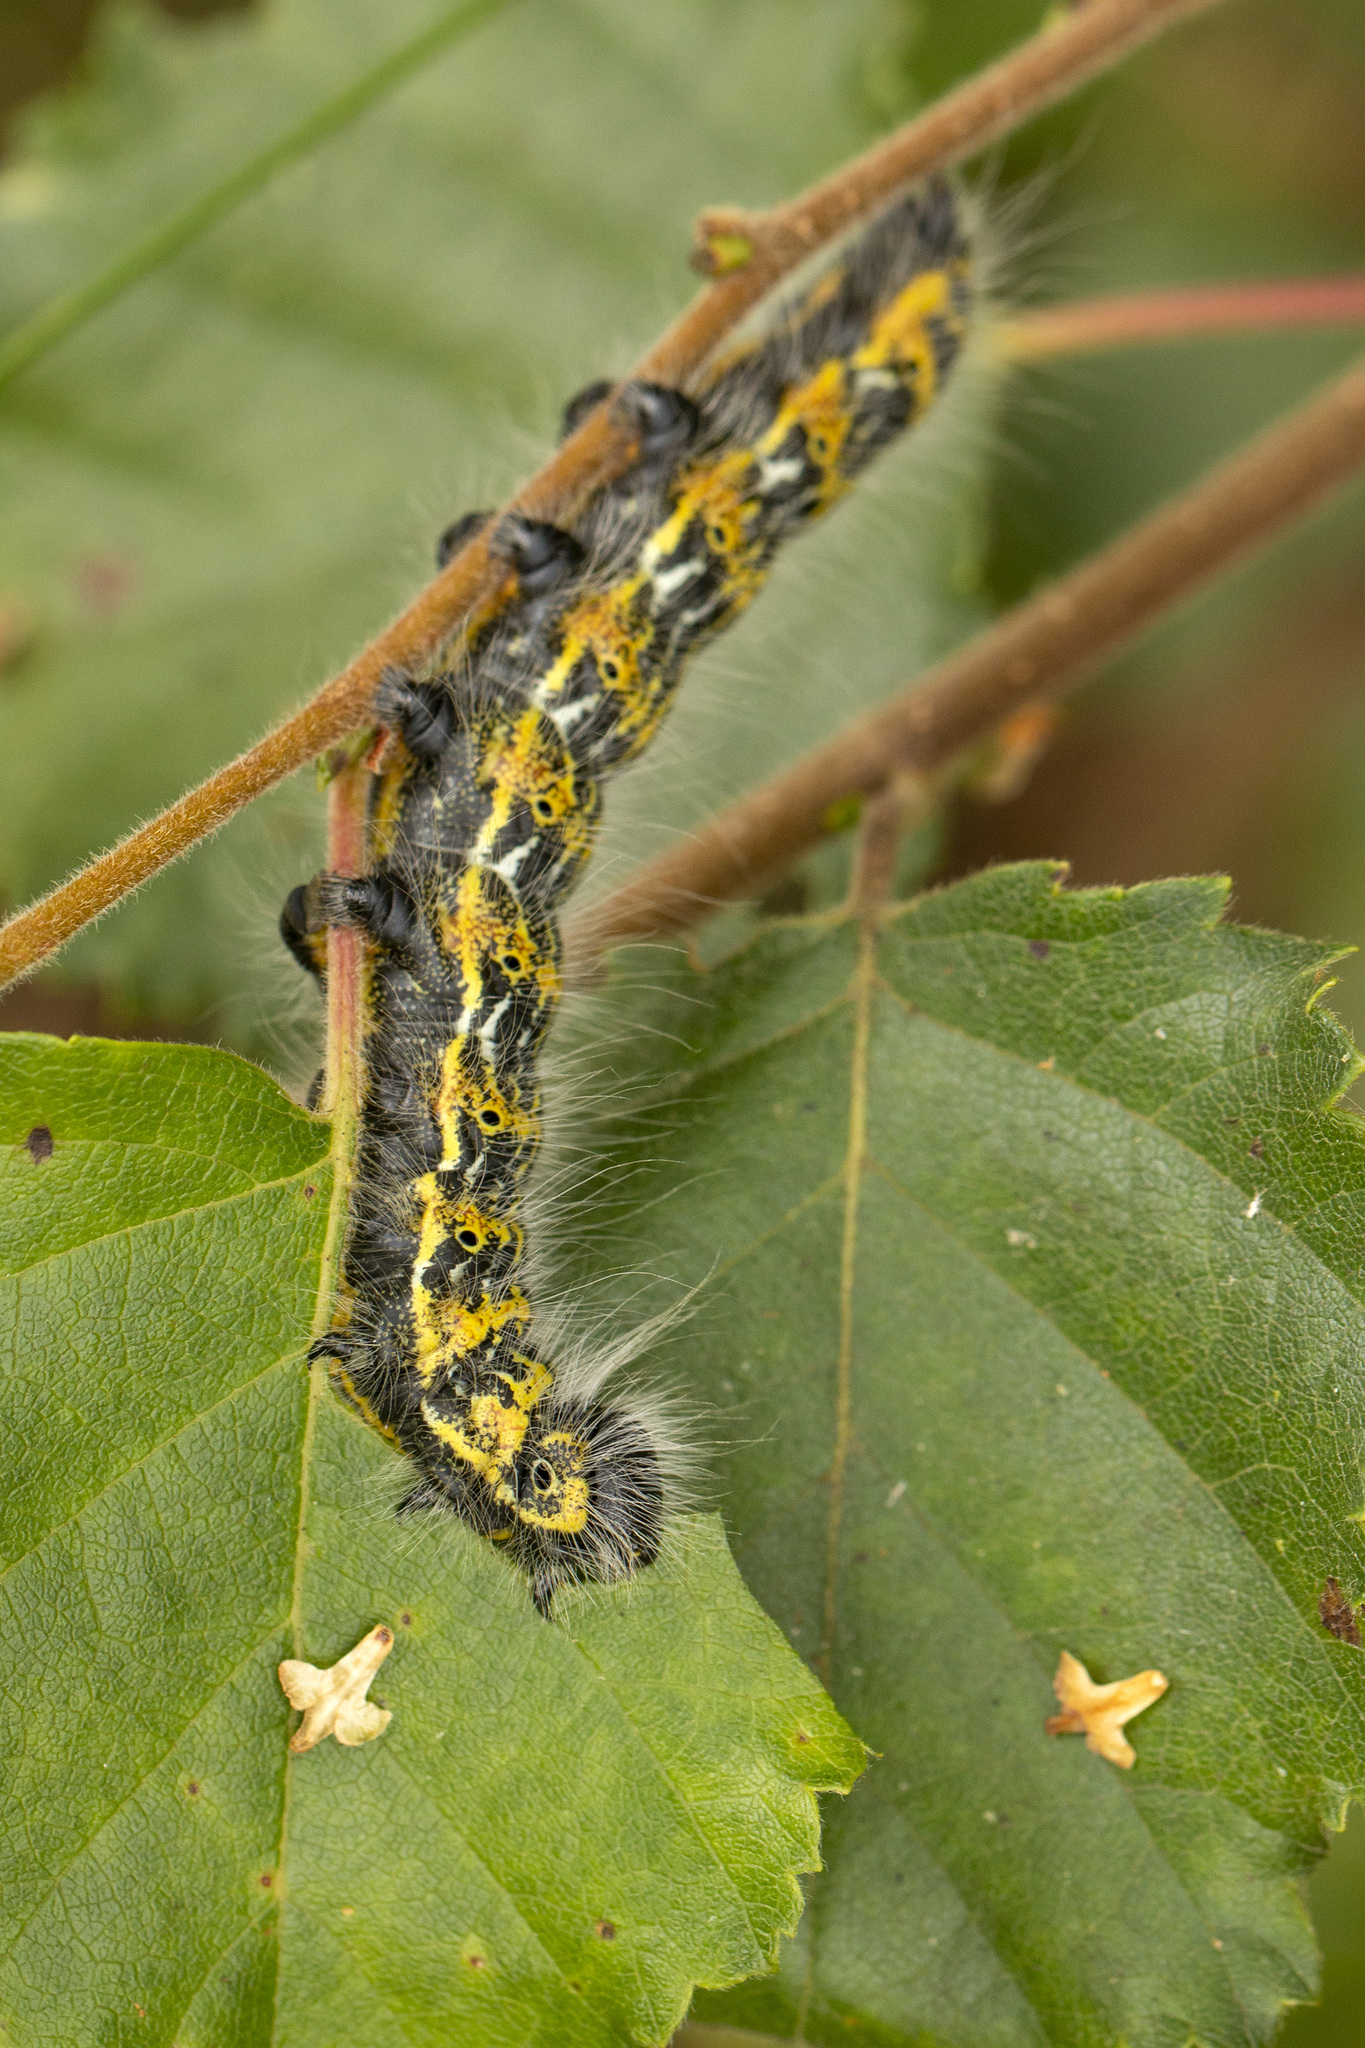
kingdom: Animalia
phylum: Arthropoda
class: Insecta
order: Lepidoptera
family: Notodontidae
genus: Phalera
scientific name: Phalera bucephala
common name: Buff-tip
